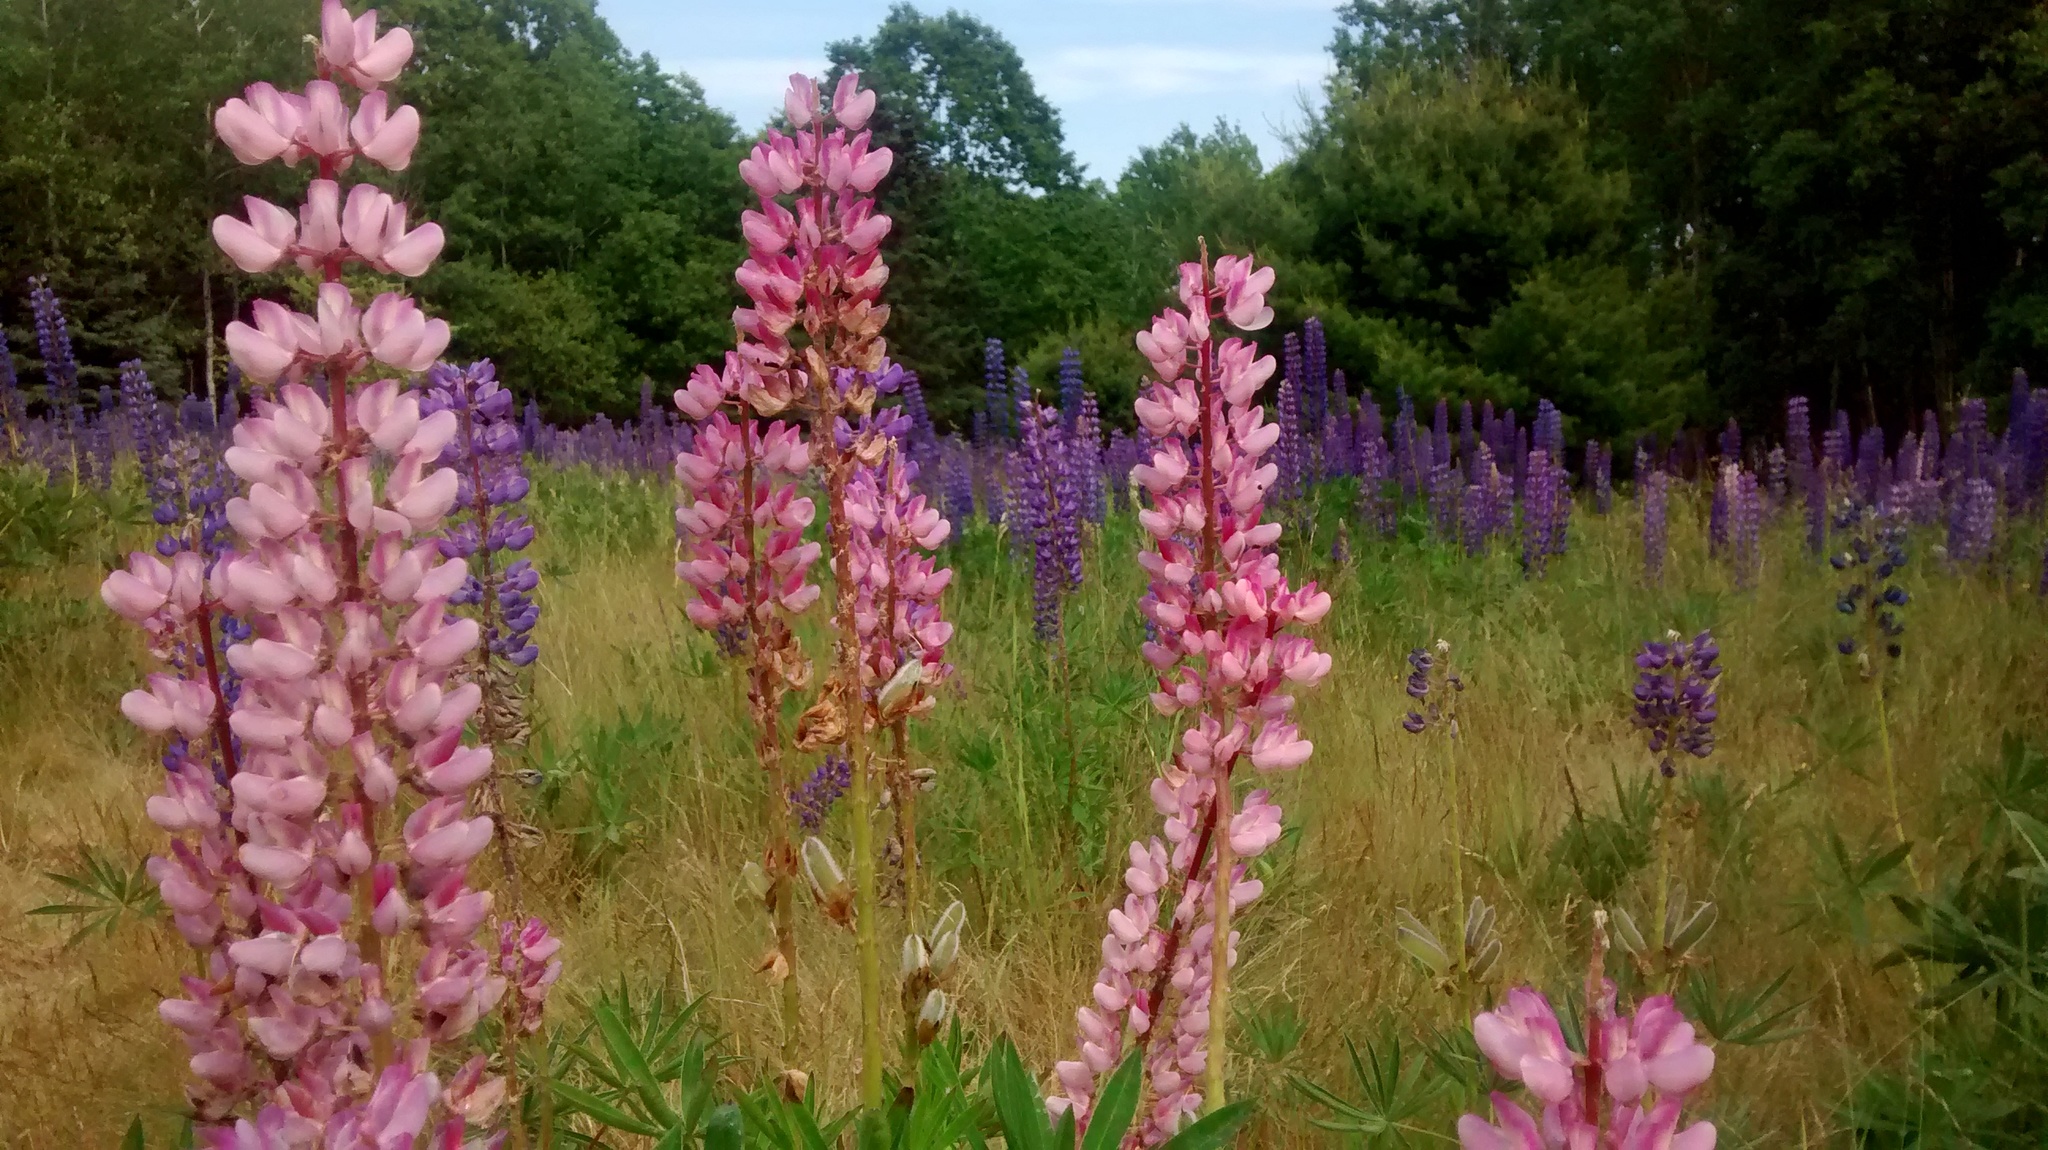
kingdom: Plantae
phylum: Tracheophyta
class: Magnoliopsida
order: Fabales
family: Fabaceae
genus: Lupinus
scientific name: Lupinus polyphyllus
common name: Garden lupin
